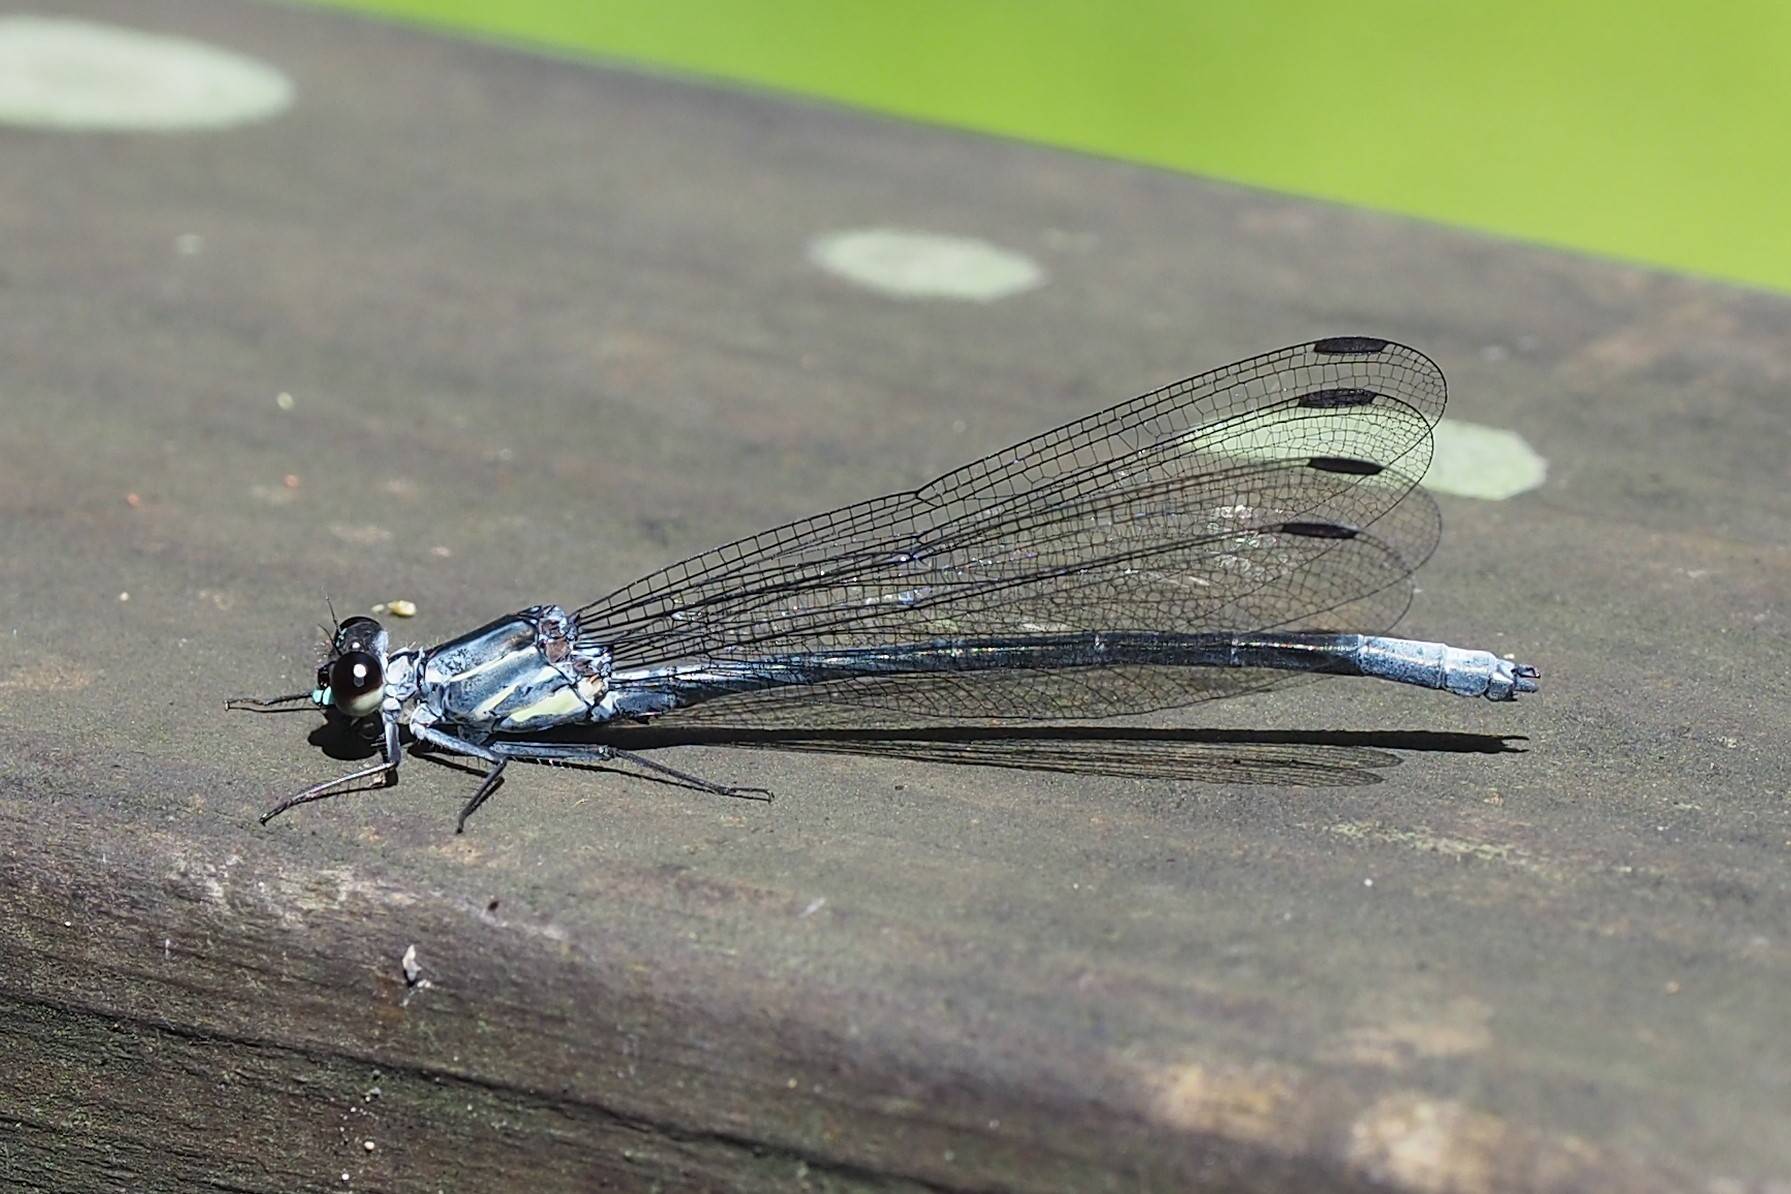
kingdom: Animalia
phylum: Arthropoda
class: Insecta
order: Odonata
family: Euphaeidae
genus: Bayadera
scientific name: Bayadera brevicauda
